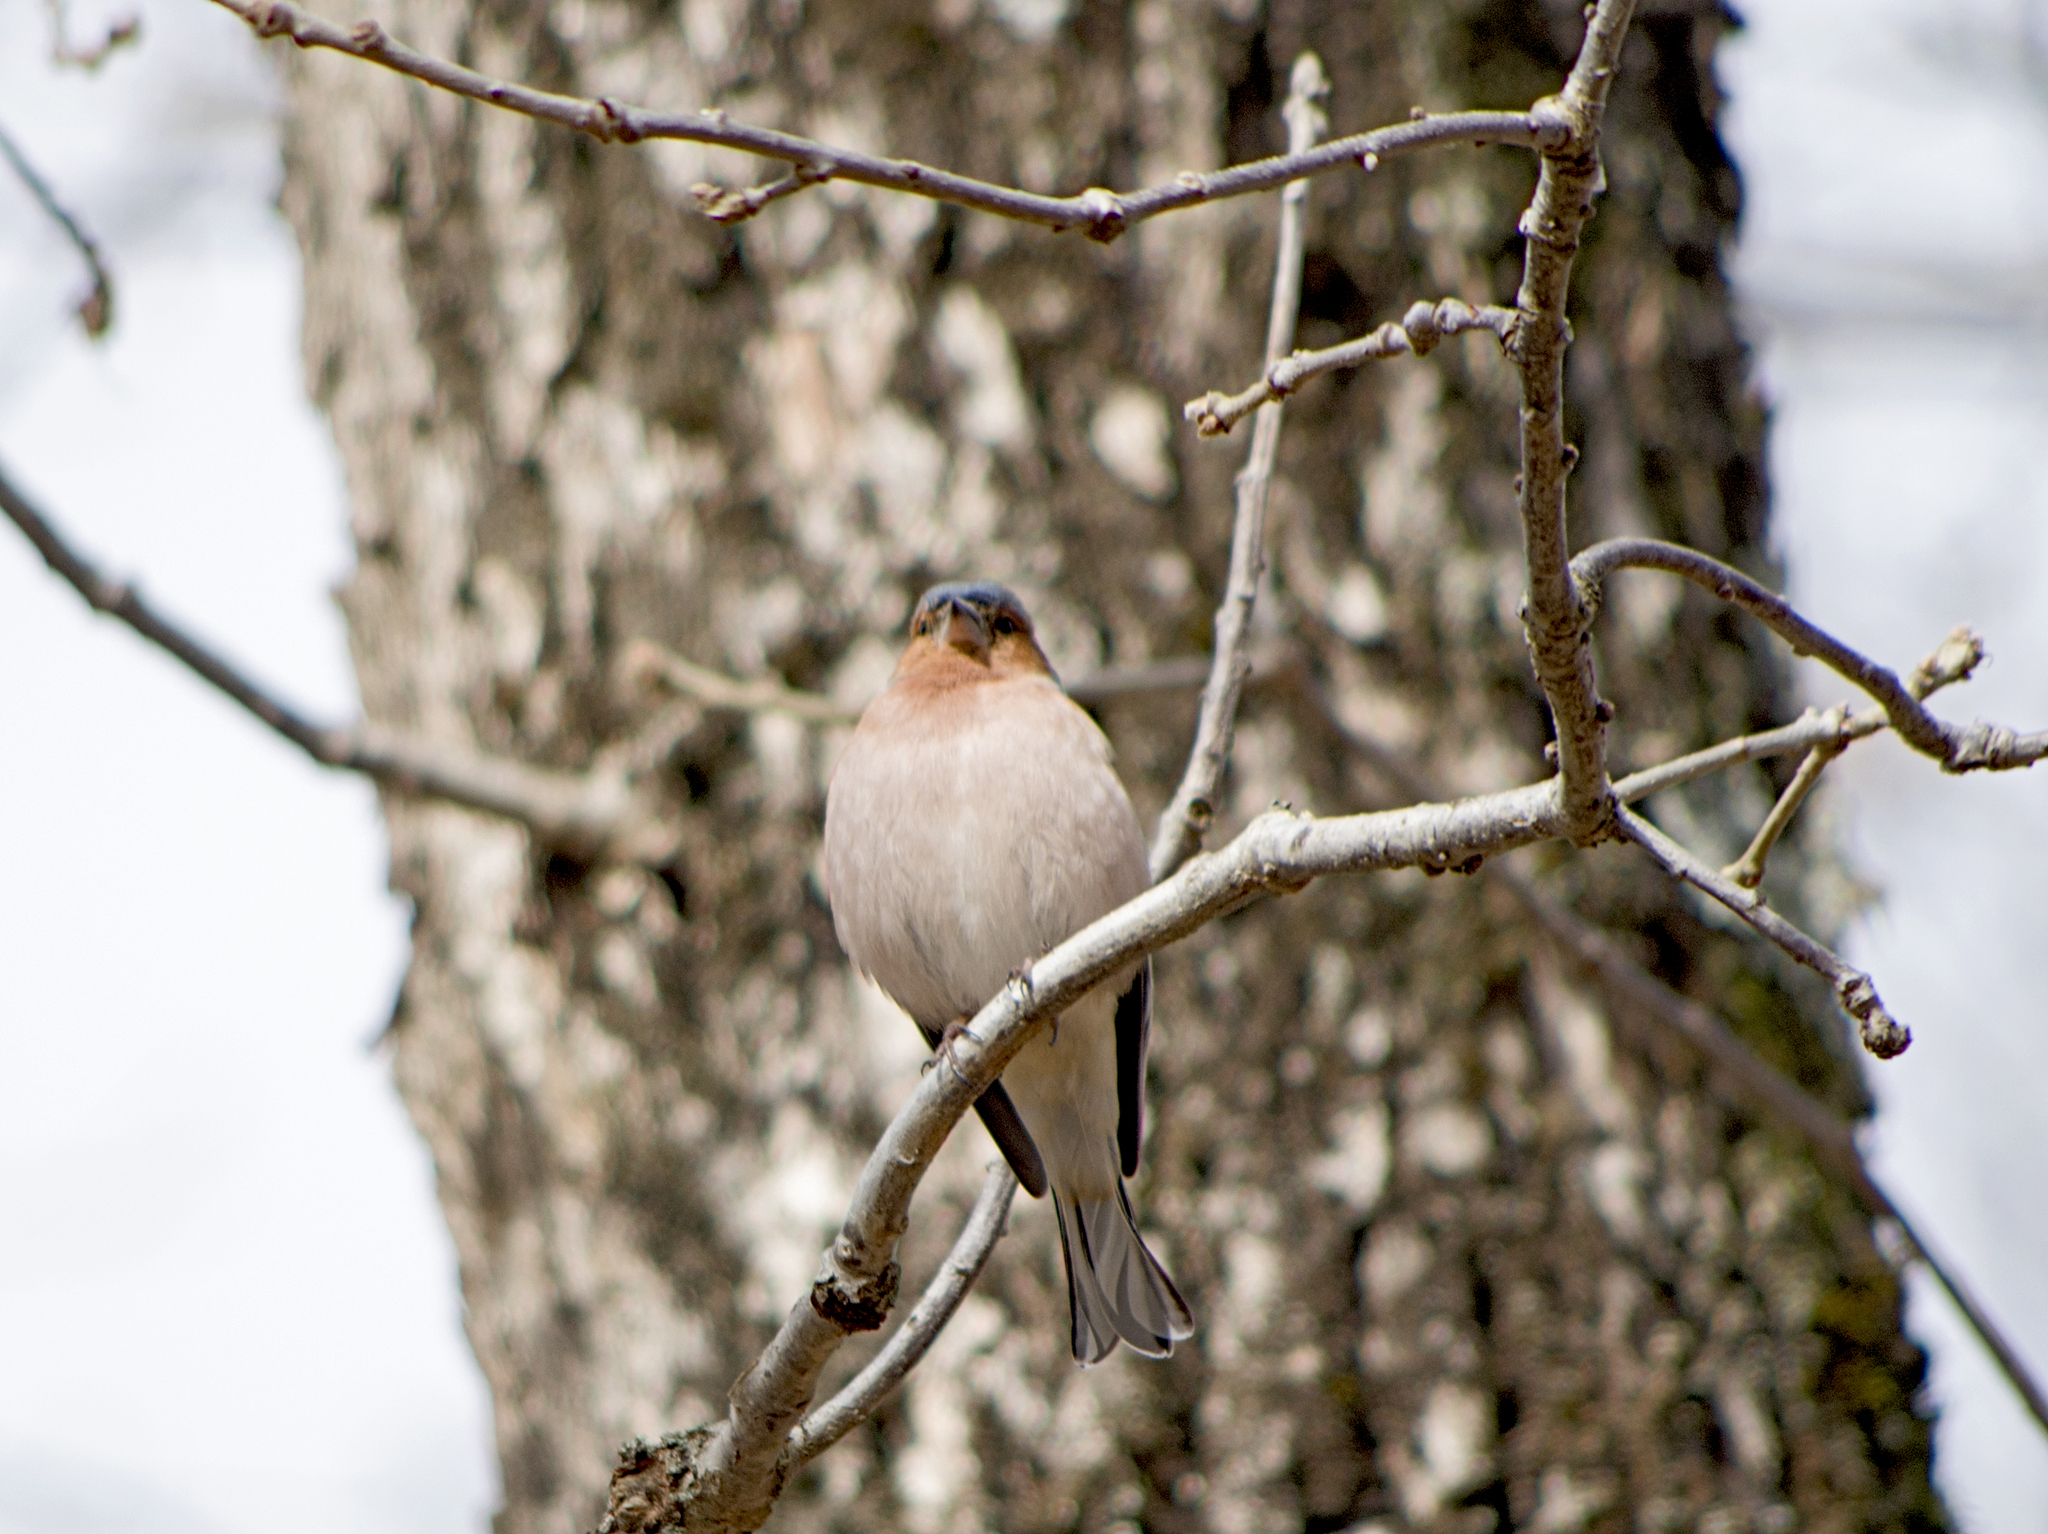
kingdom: Animalia
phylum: Chordata
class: Aves
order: Passeriformes
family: Fringillidae
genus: Fringilla
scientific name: Fringilla coelebs
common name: Common chaffinch
